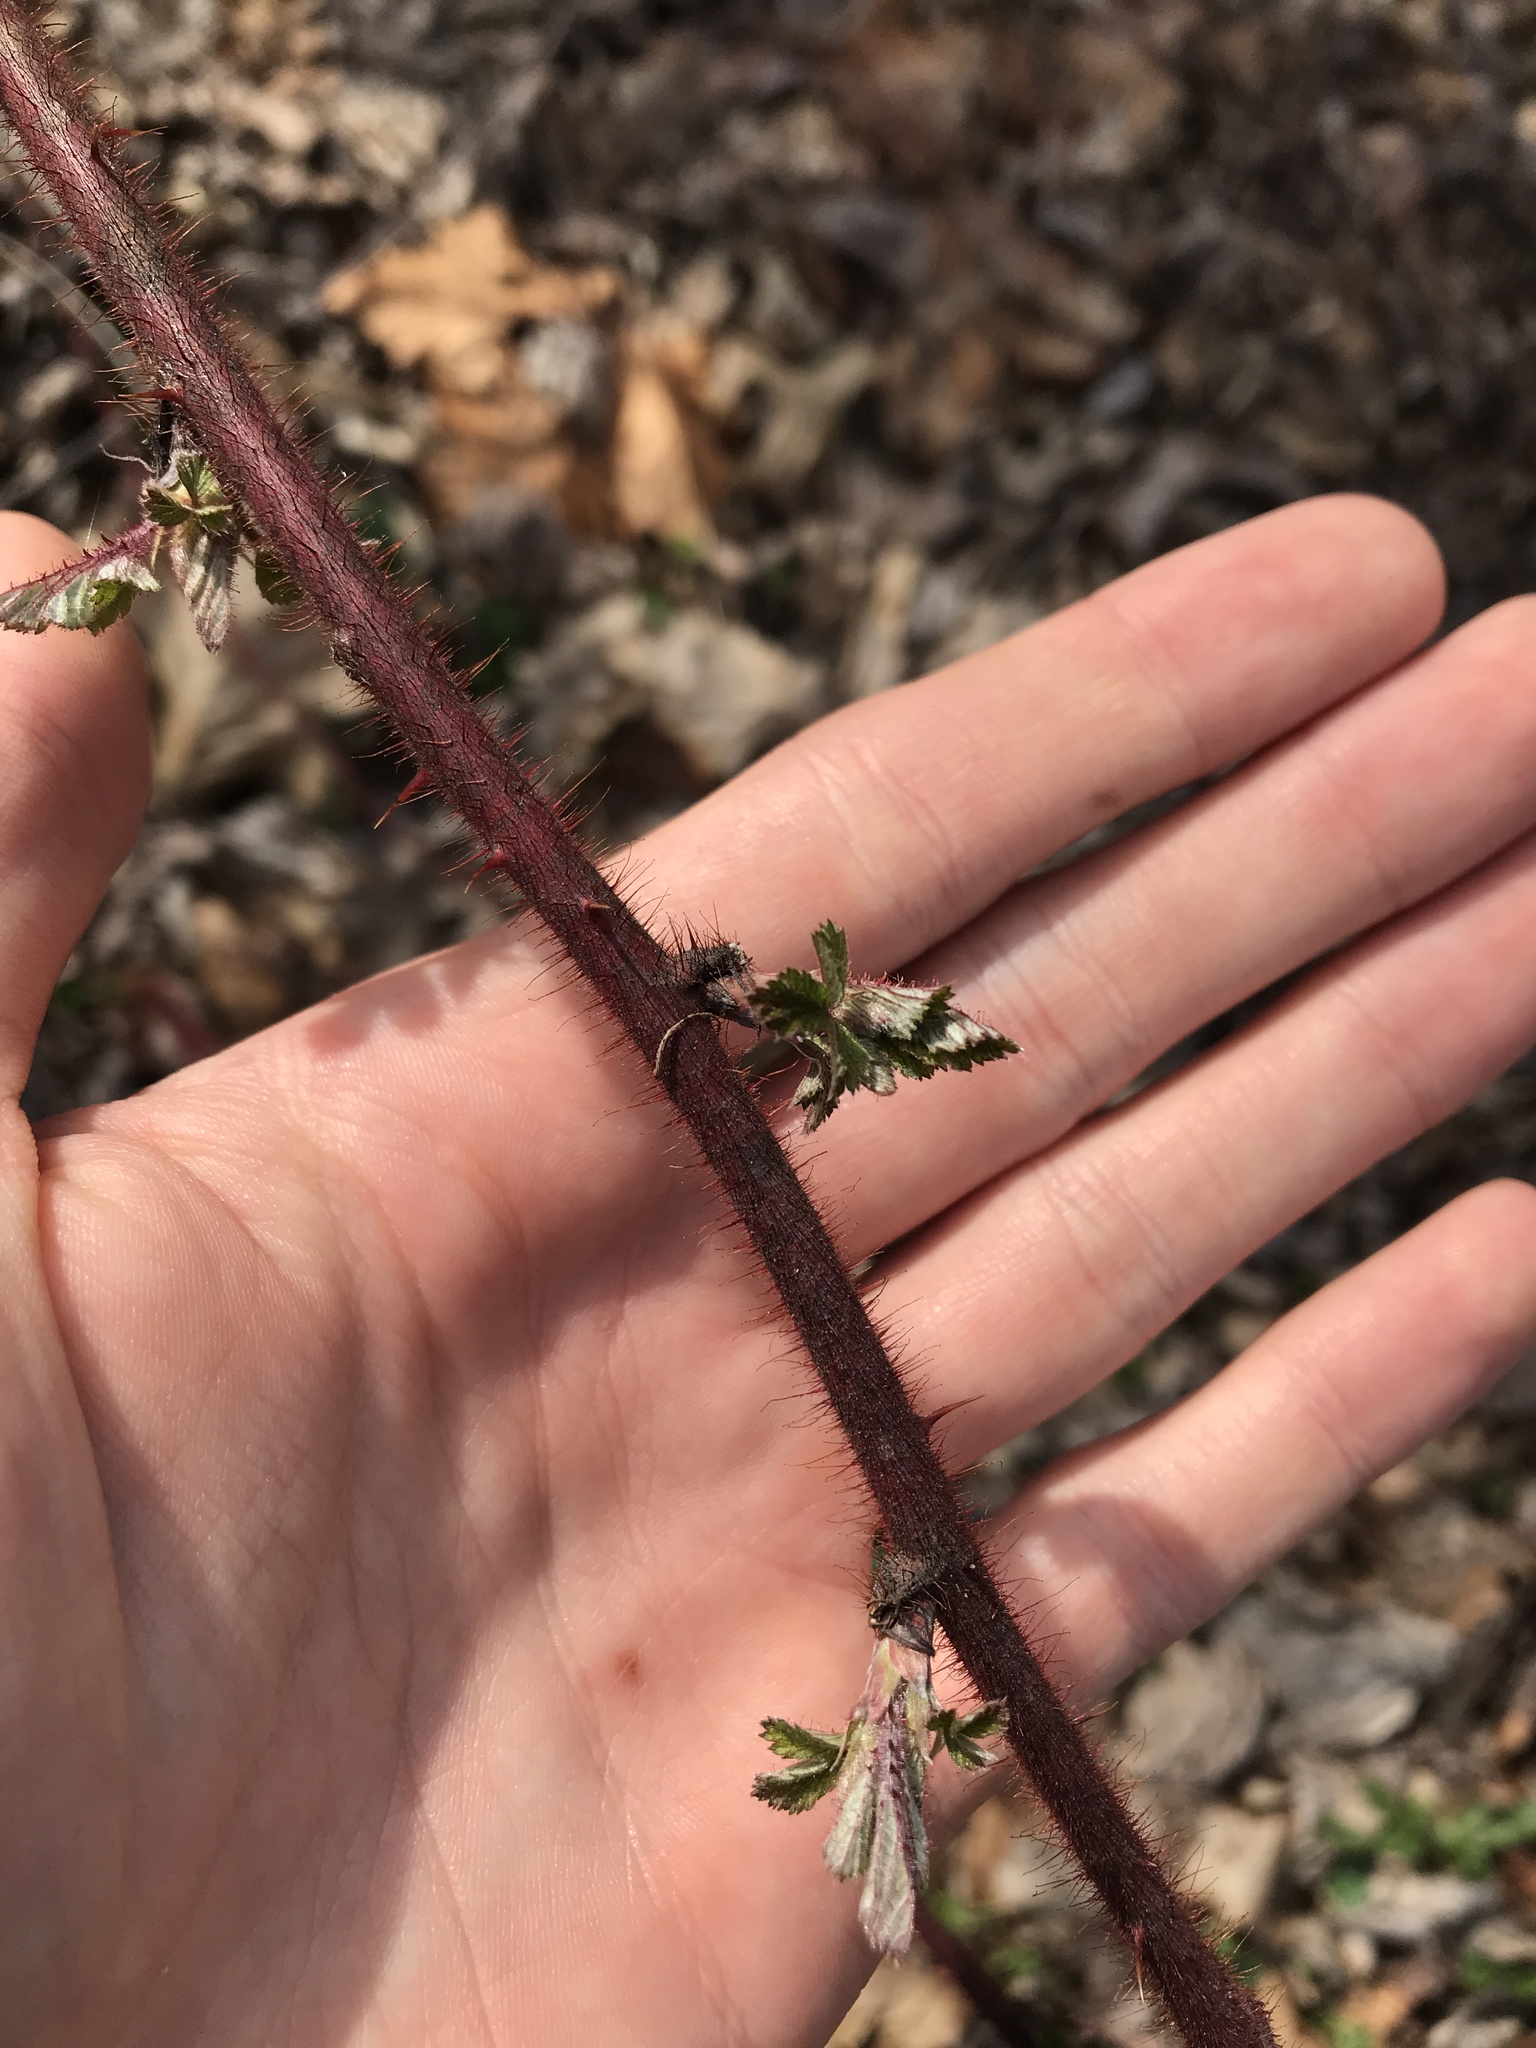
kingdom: Plantae
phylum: Tracheophyta
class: Magnoliopsida
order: Rosales
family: Rosaceae
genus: Rubus
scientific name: Rubus phoenicolasius
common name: Japanese wineberry
